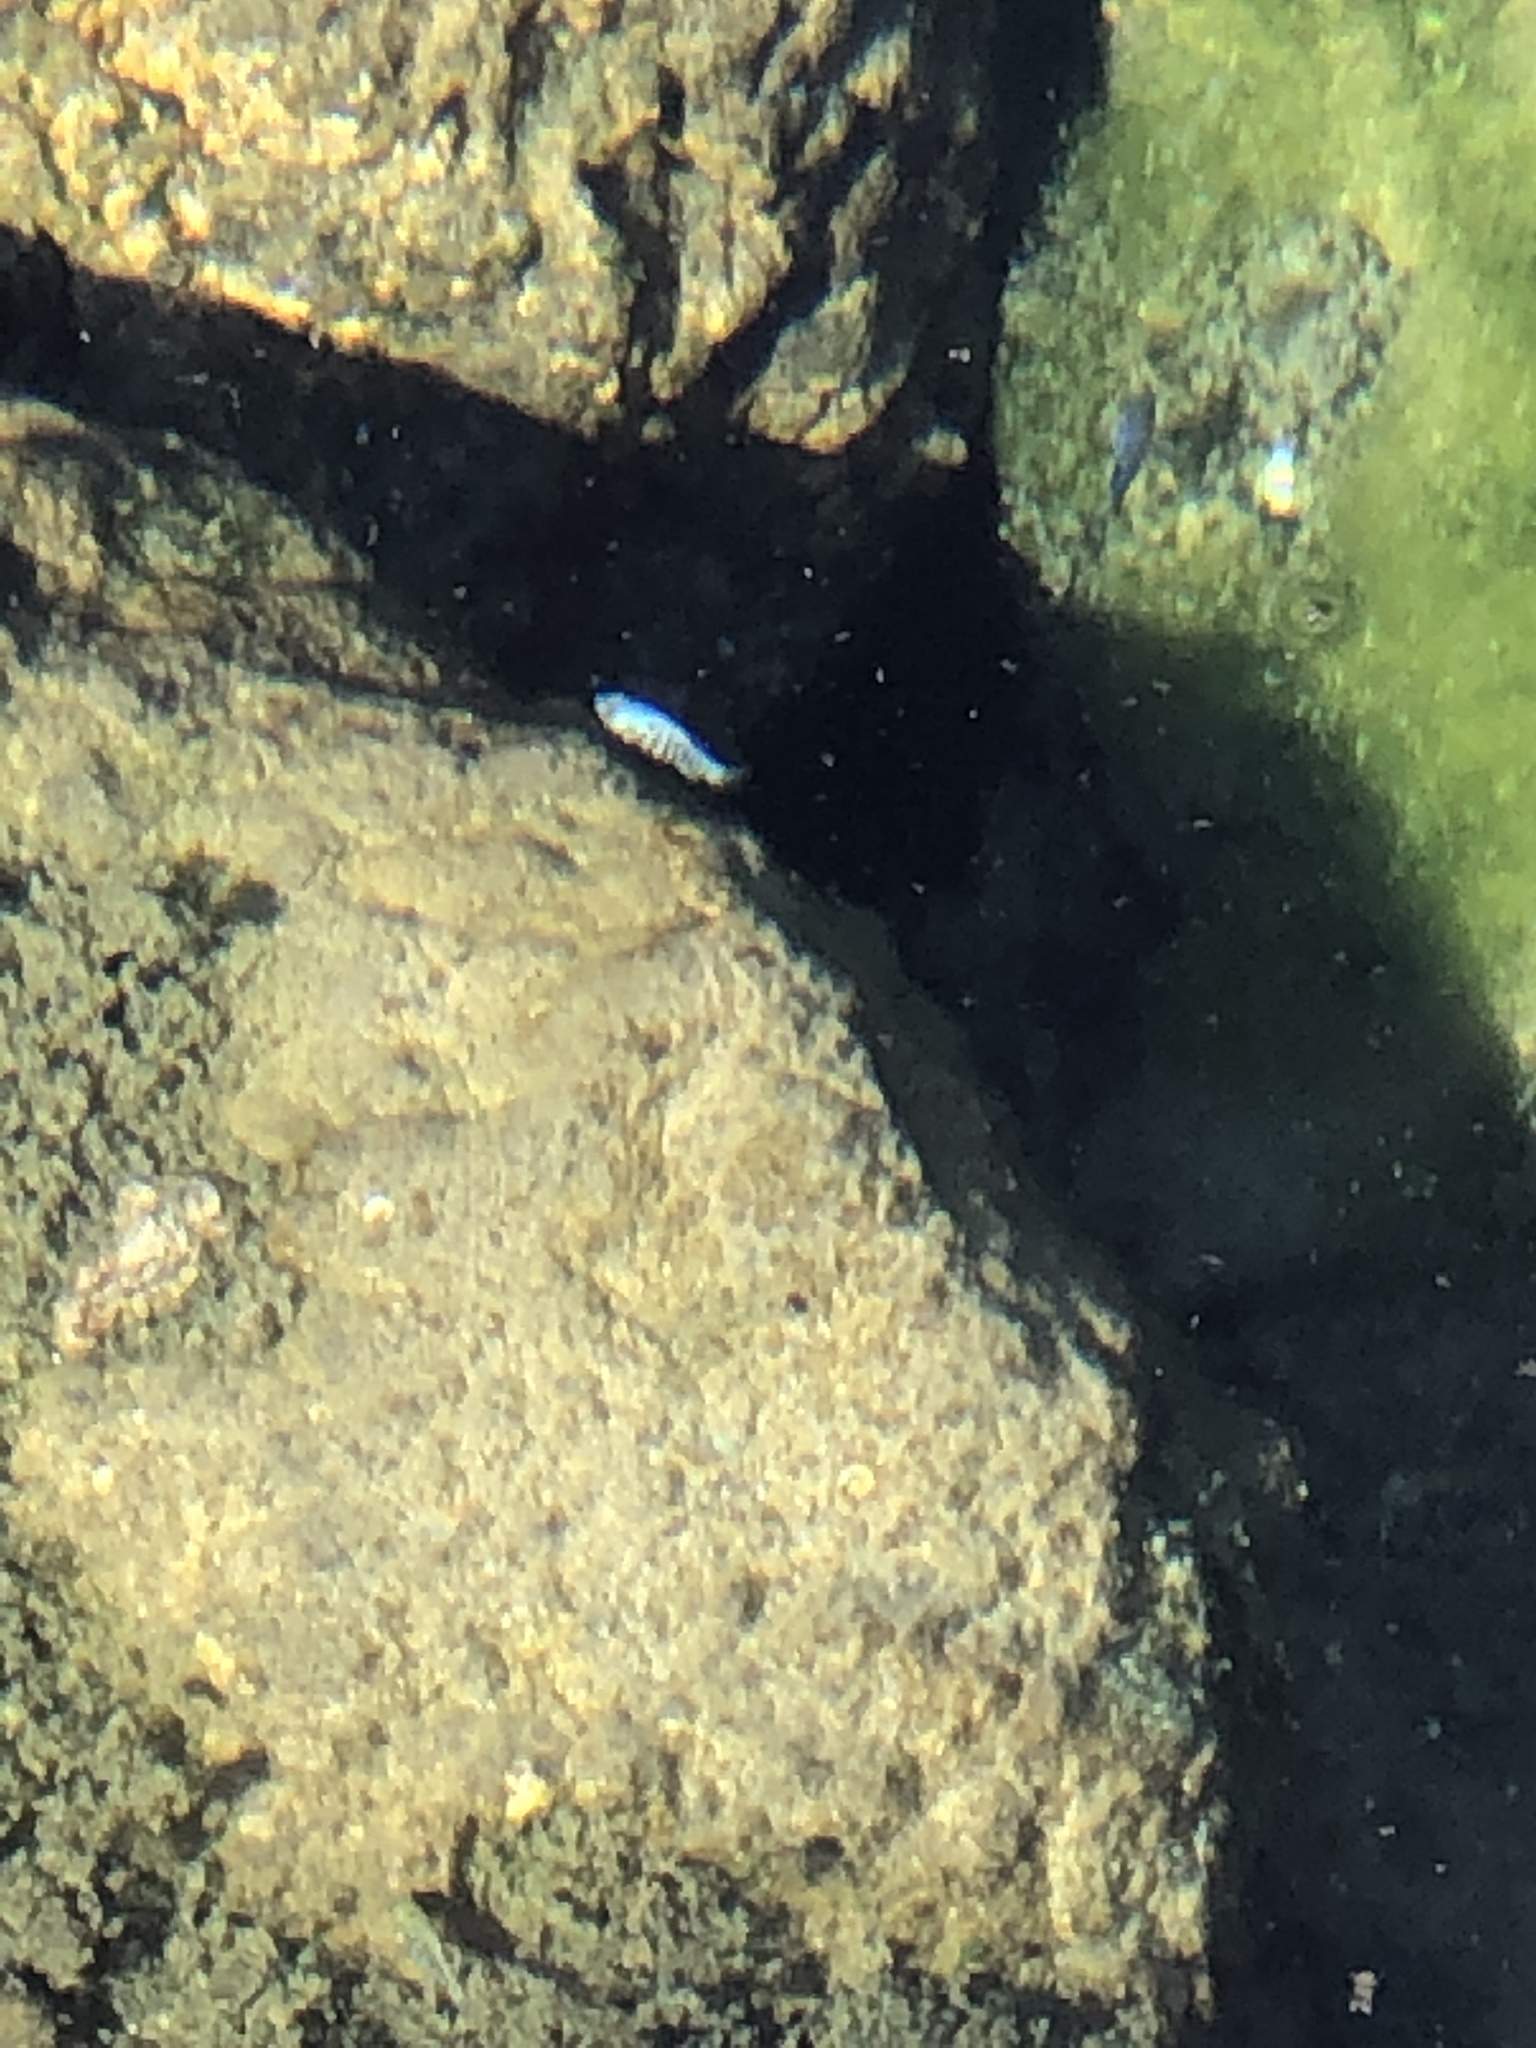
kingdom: Animalia
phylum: Chordata
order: Cyprinodontiformes
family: Cyprinodontidae
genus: Cyprinodon
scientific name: Cyprinodon nevadensis
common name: Amargosa pupfish
